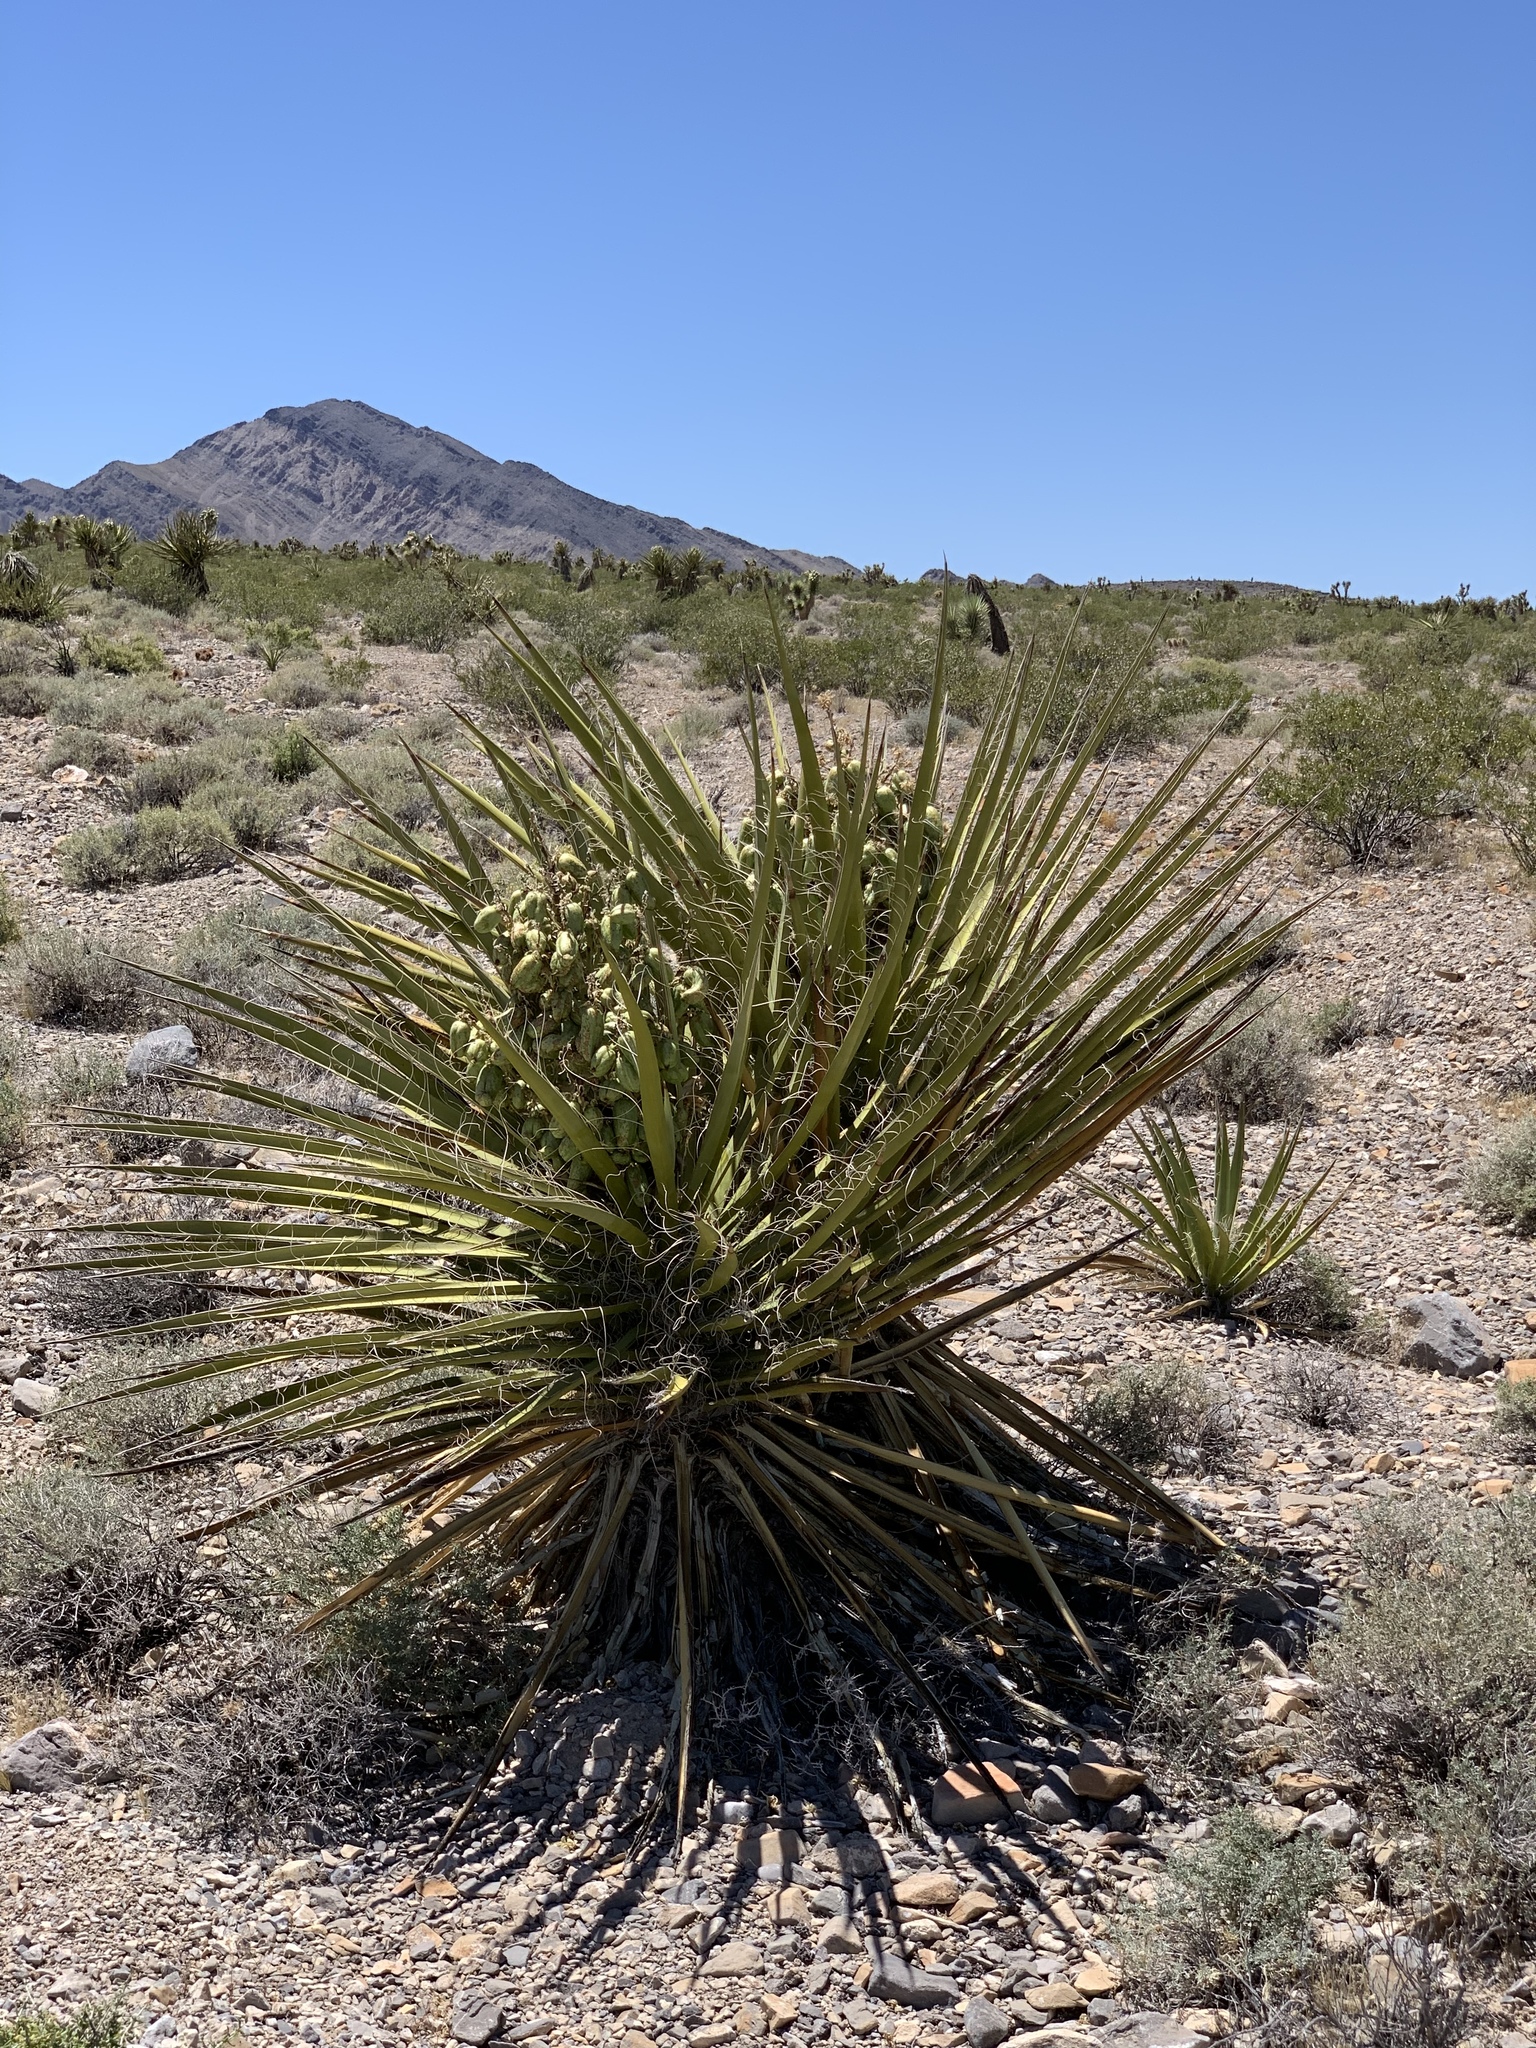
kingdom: Plantae
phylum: Tracheophyta
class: Liliopsida
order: Asparagales
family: Asparagaceae
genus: Yucca
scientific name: Yucca schidigera
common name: Mojave yucca
